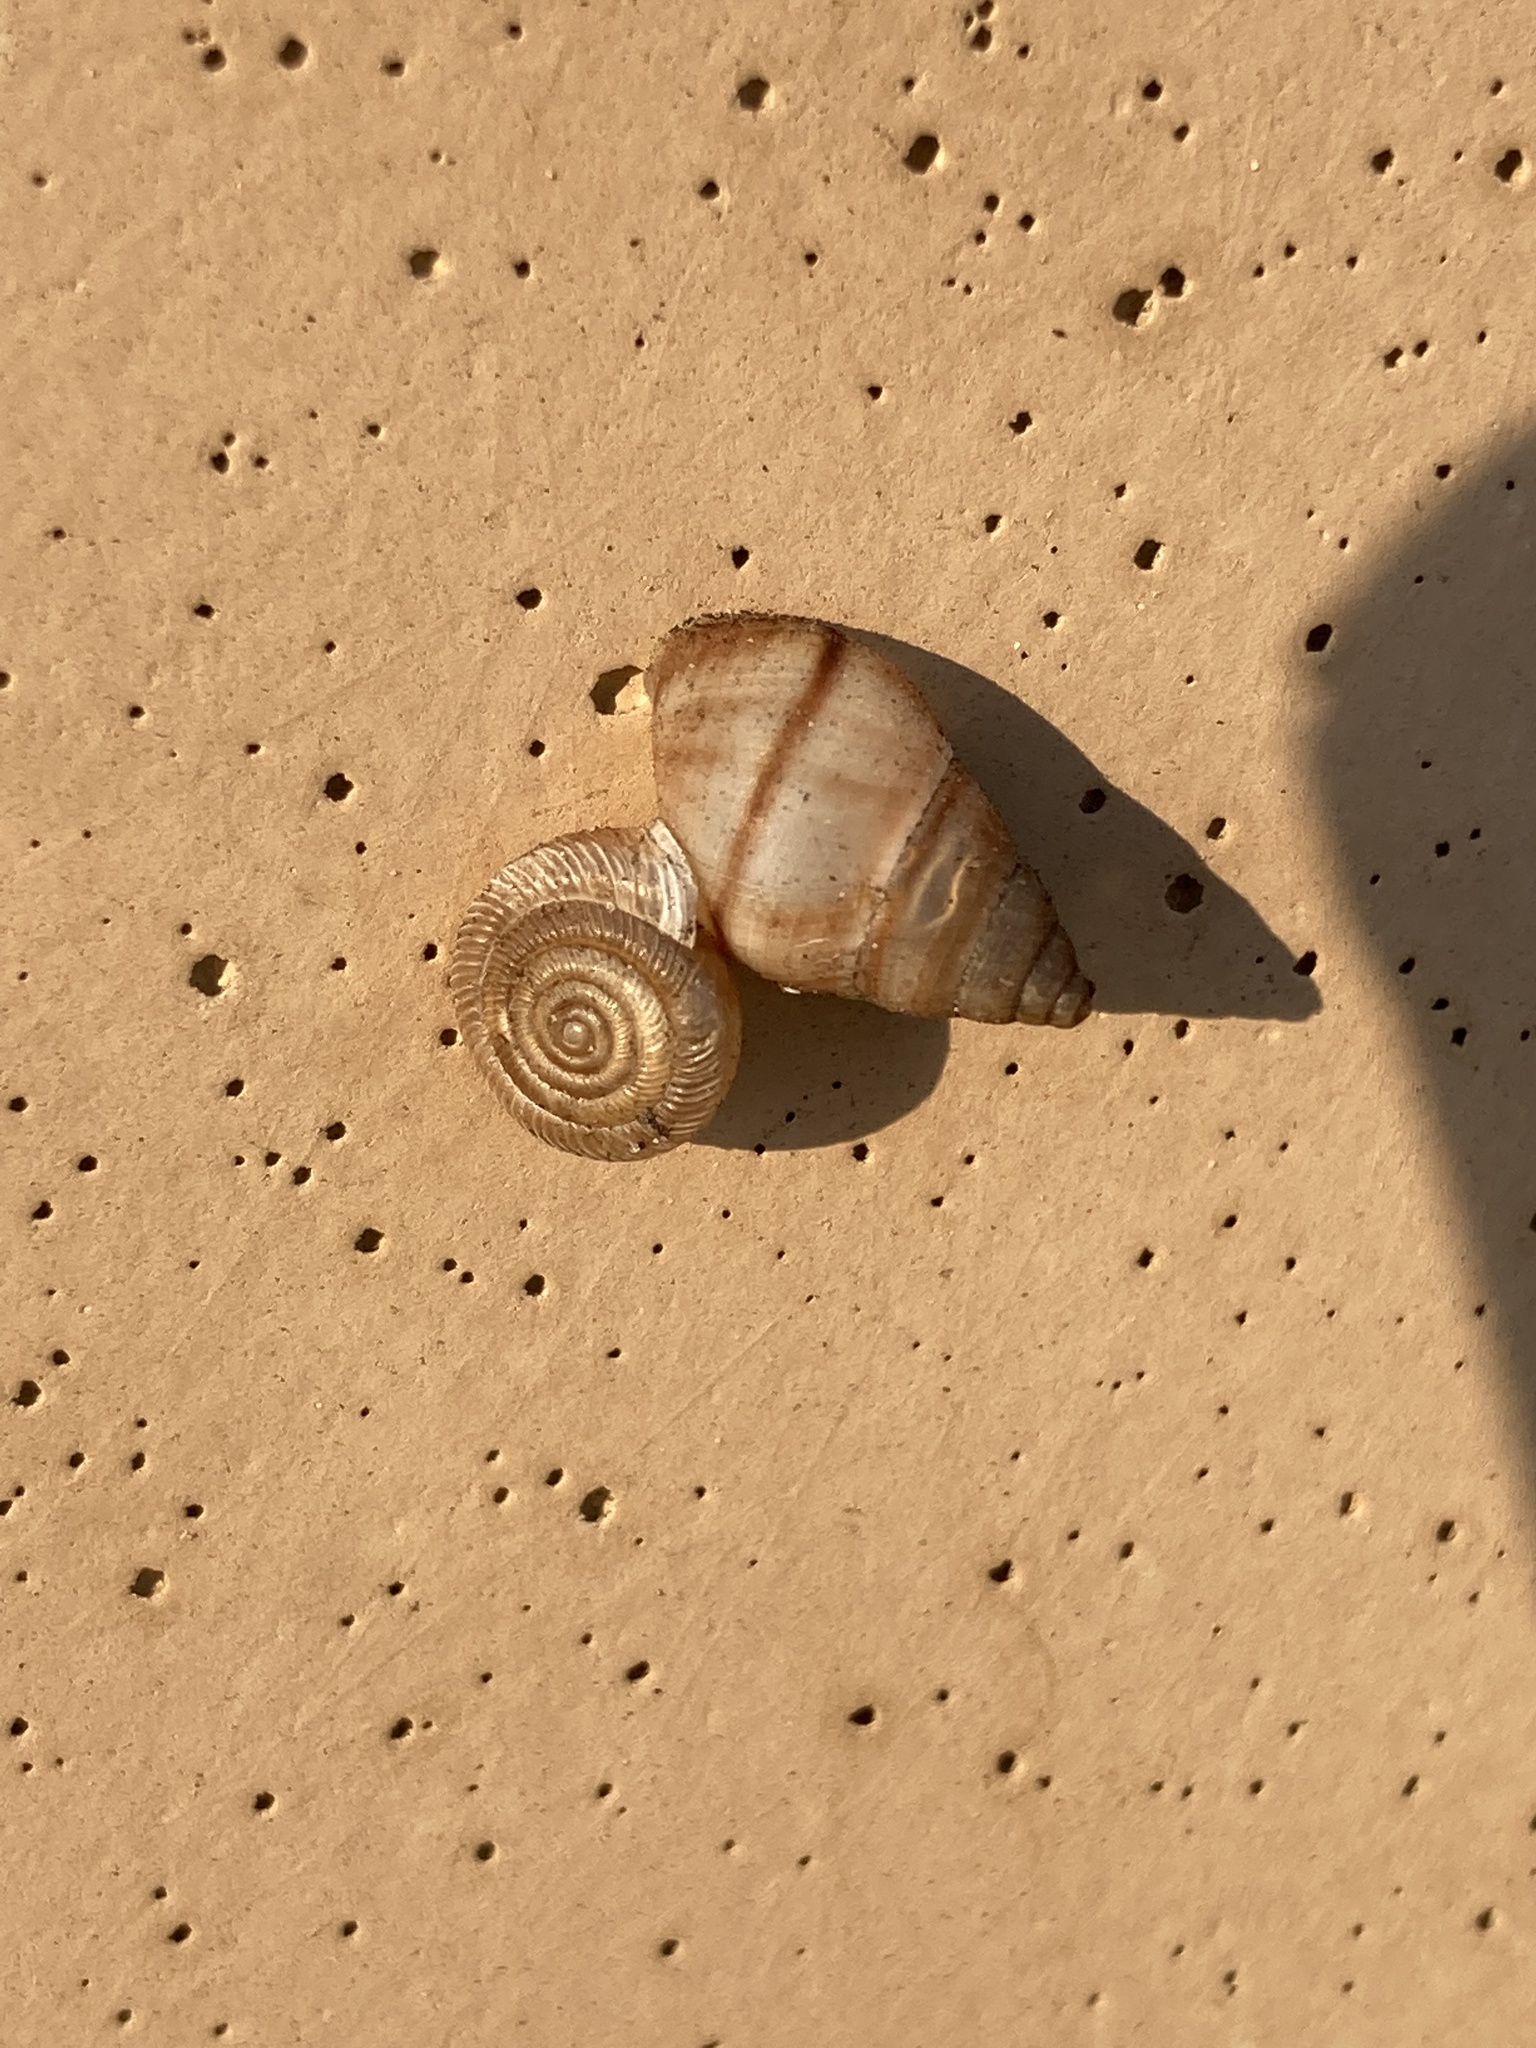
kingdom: Animalia
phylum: Mollusca
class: Gastropoda
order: Stylommatophora
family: Bulimulidae
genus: Bulimulus
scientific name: Bulimulus guadalupensis
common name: West indian bulimulus
